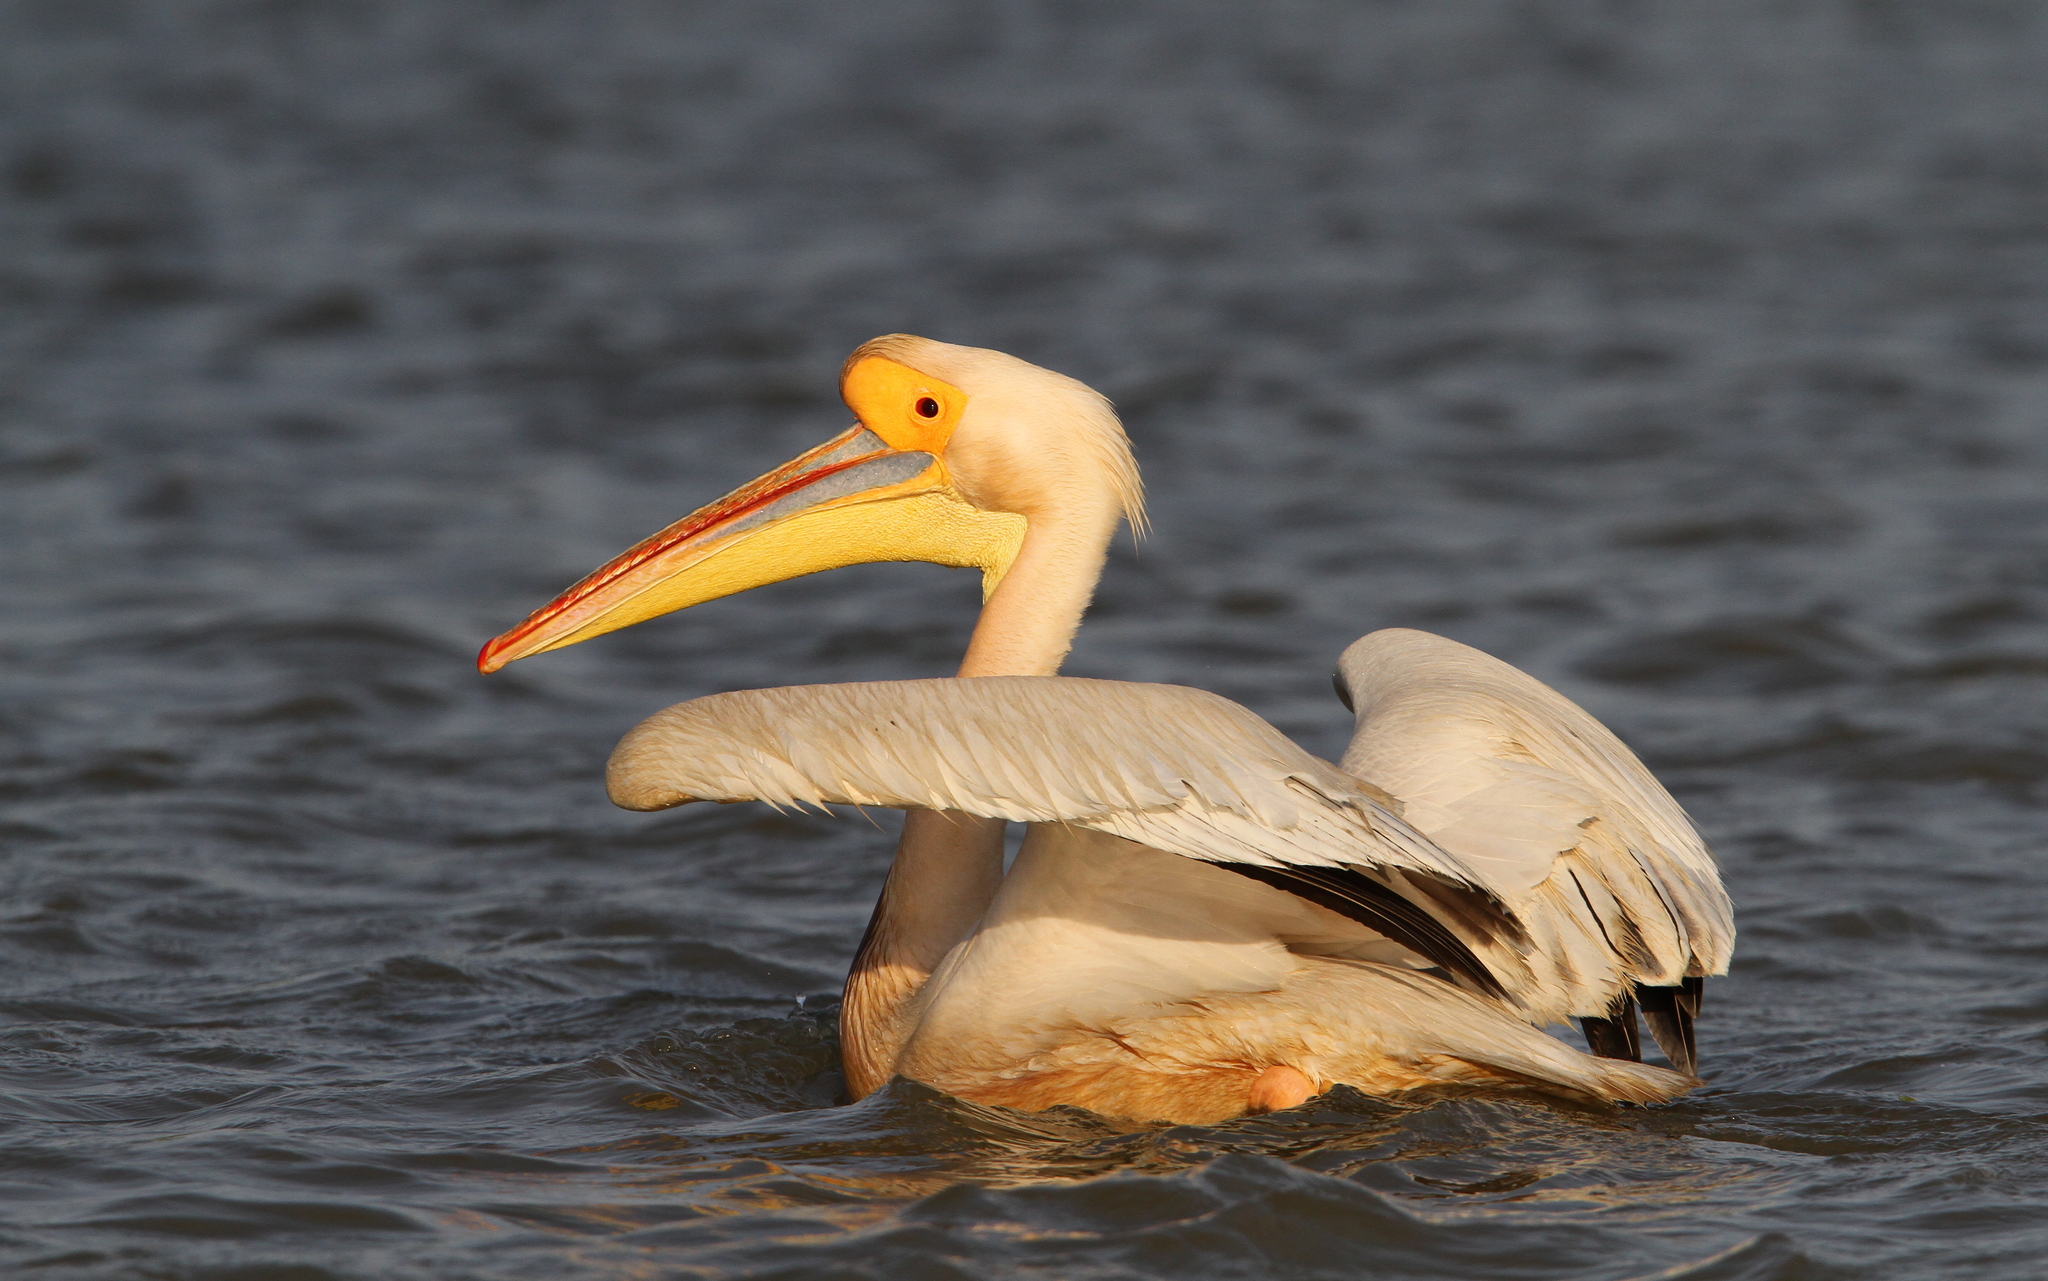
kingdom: Animalia
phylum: Chordata
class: Aves
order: Pelecaniformes
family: Pelecanidae
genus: Pelecanus
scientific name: Pelecanus onocrotalus
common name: Great white pelican
